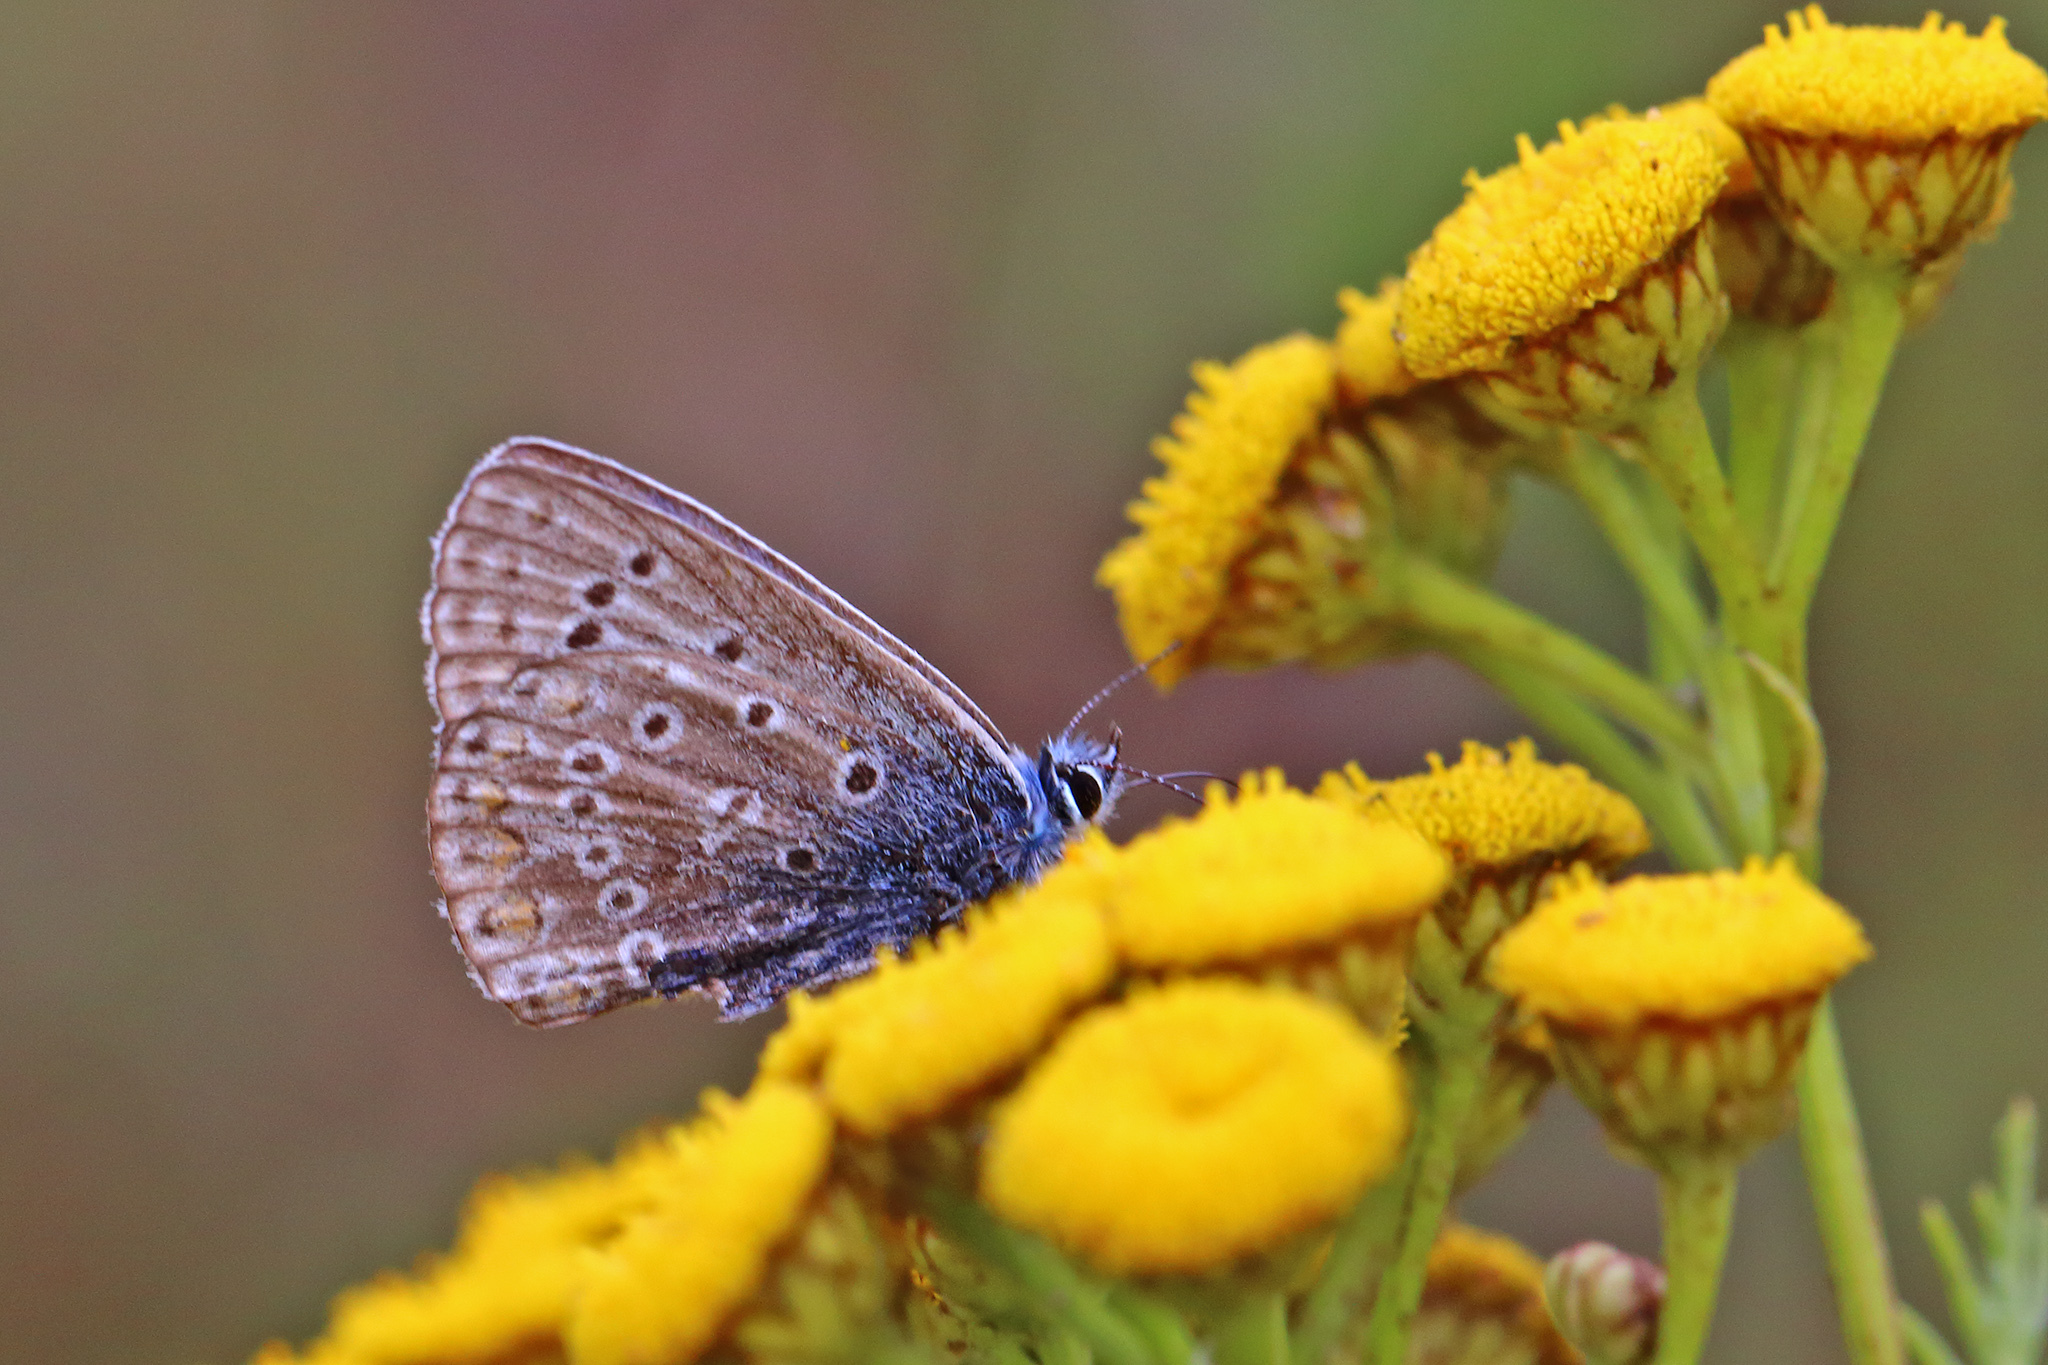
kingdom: Animalia
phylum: Arthropoda
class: Insecta
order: Lepidoptera
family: Lycaenidae
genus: Polyommatus
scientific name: Polyommatus icarus
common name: Common blue
